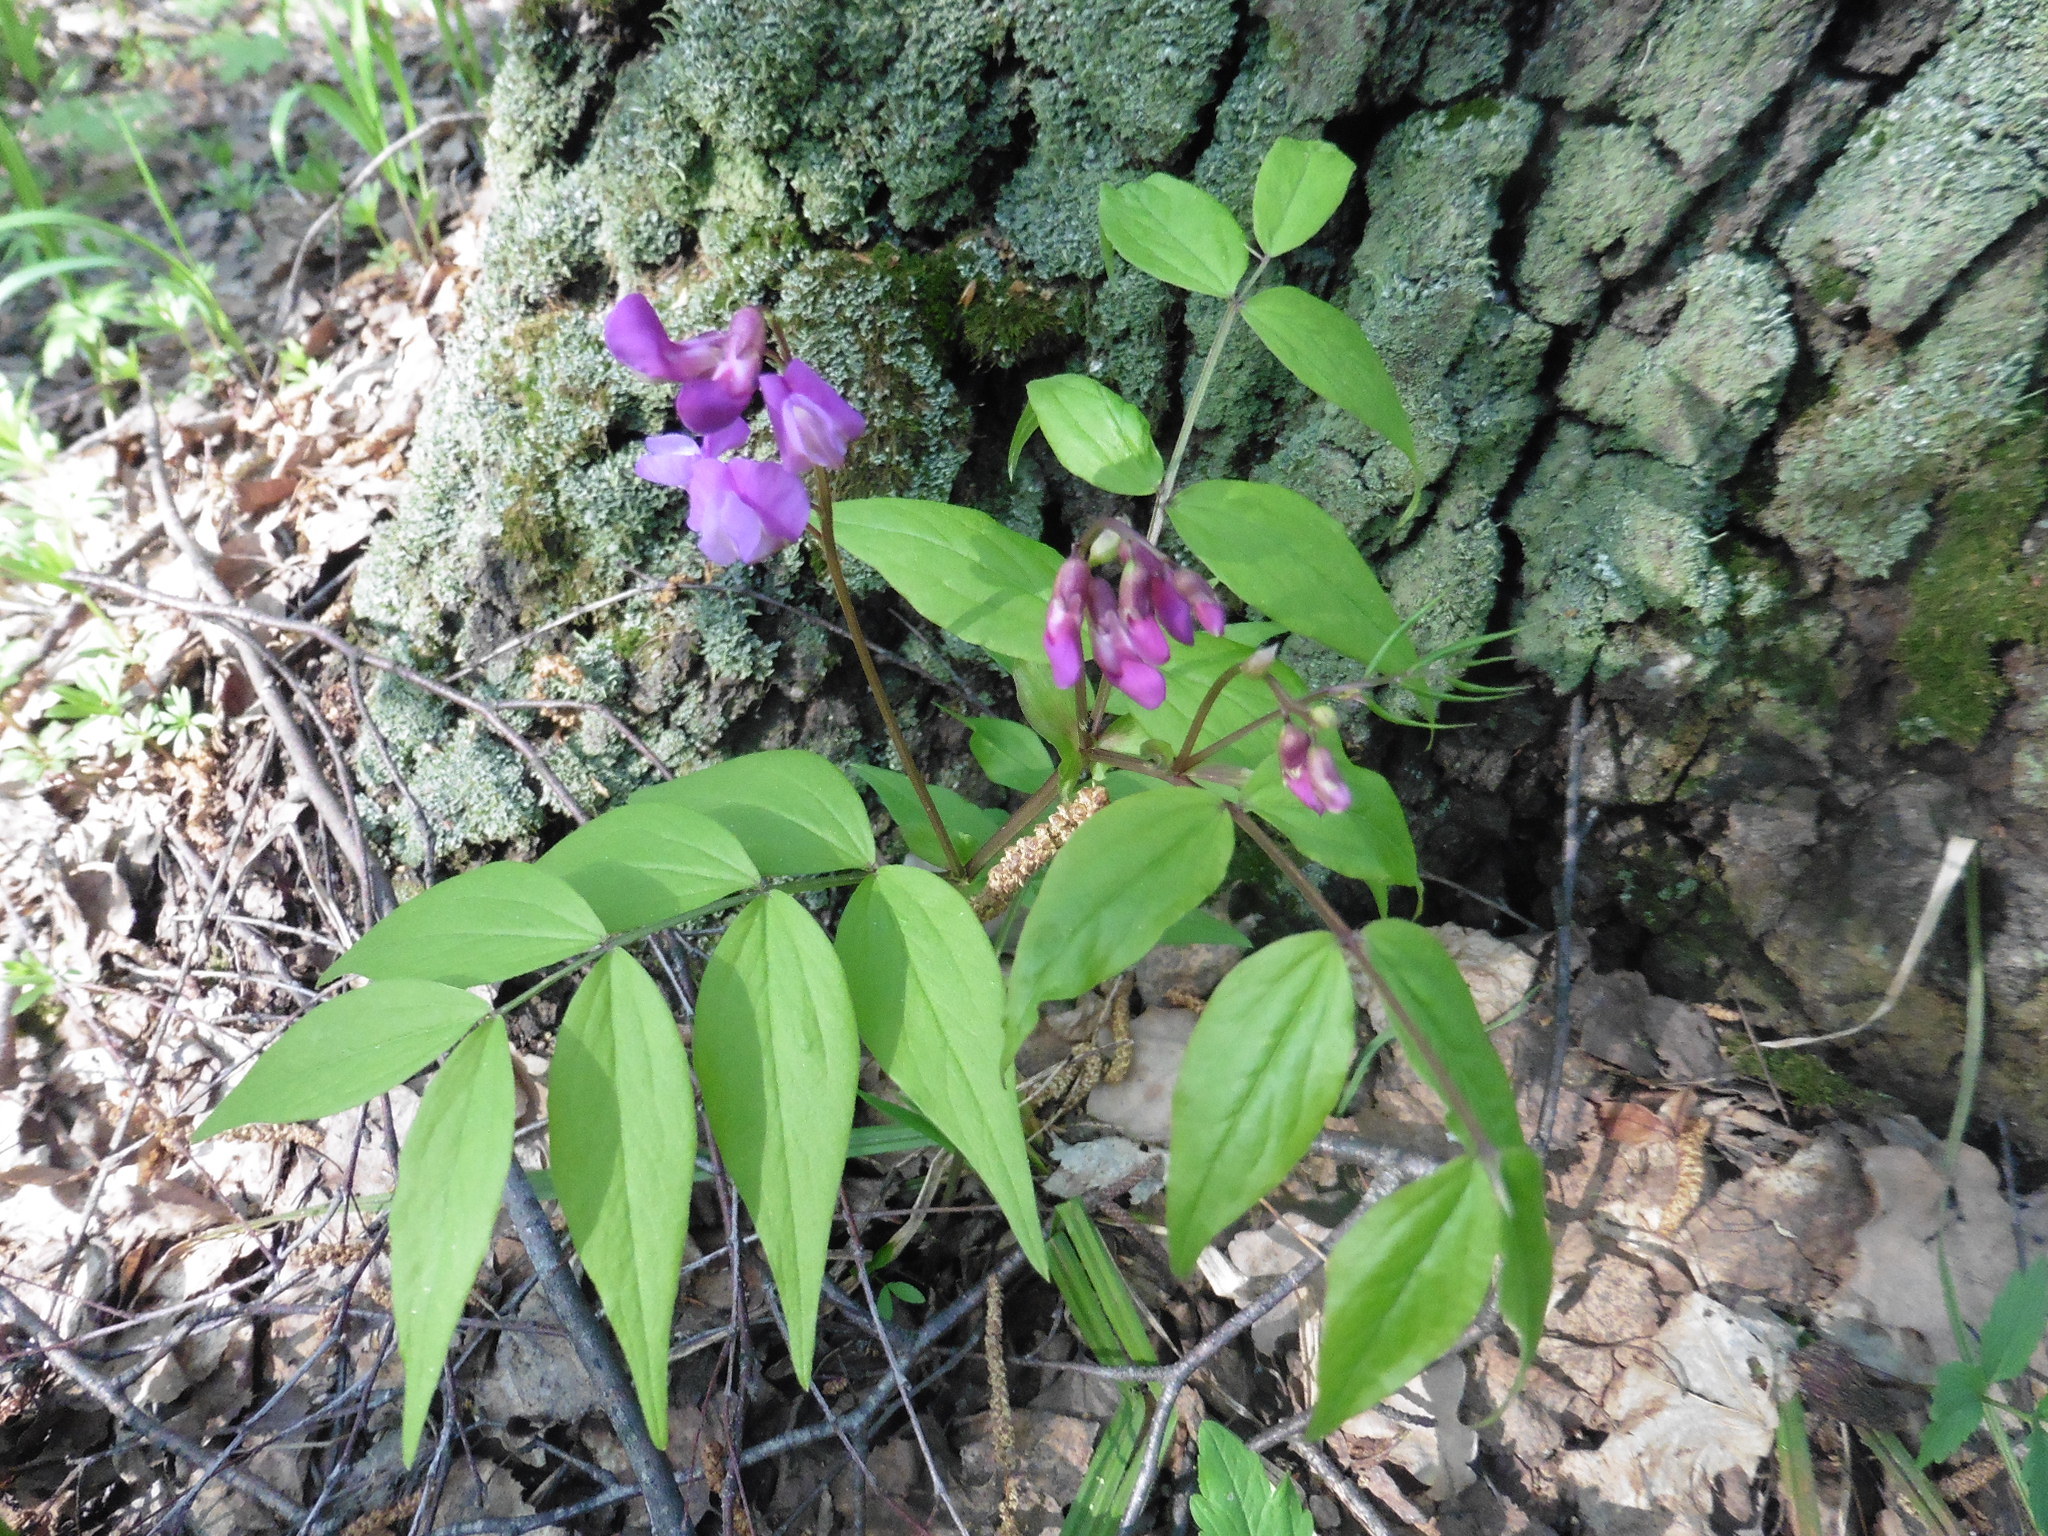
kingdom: Plantae
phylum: Tracheophyta
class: Magnoliopsida
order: Fabales
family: Fabaceae
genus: Lathyrus
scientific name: Lathyrus vernus
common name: Spring pea
